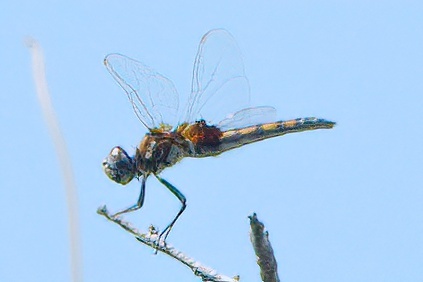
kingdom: Animalia
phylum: Arthropoda
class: Insecta
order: Odonata
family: Libellulidae
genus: Macrodiplax
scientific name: Macrodiplax balteata
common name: Marl pennant
